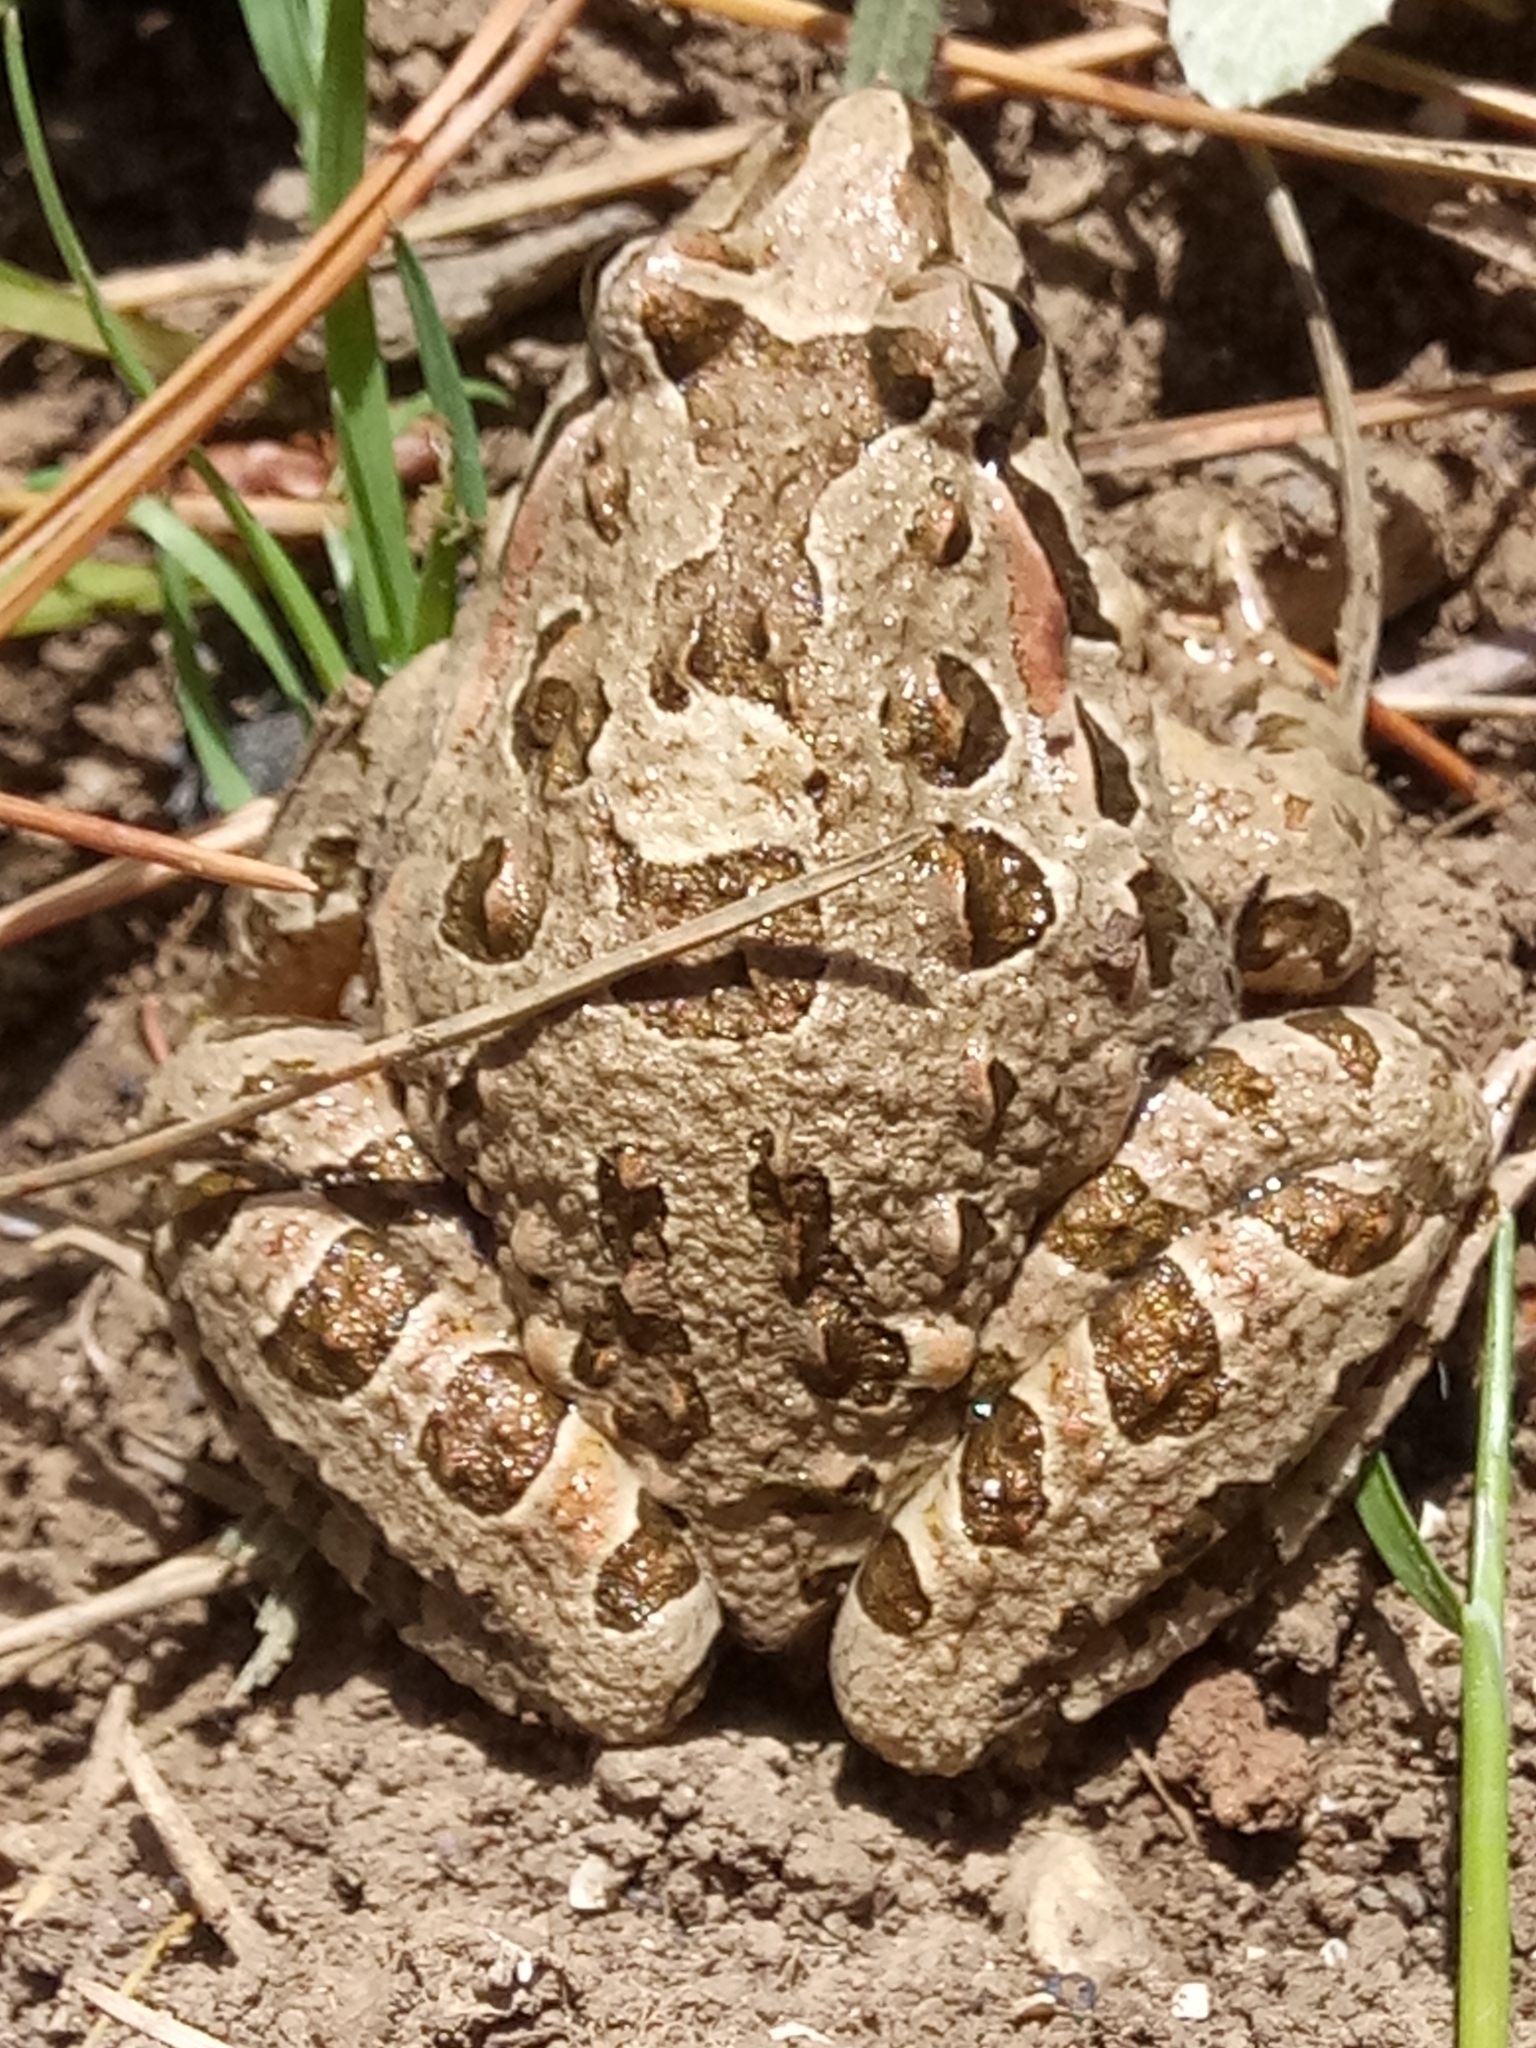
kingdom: Animalia
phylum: Chordata
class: Amphibia
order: Anura
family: Alytidae
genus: Discoglossus
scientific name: Discoglossus pictus
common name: Painted frog
